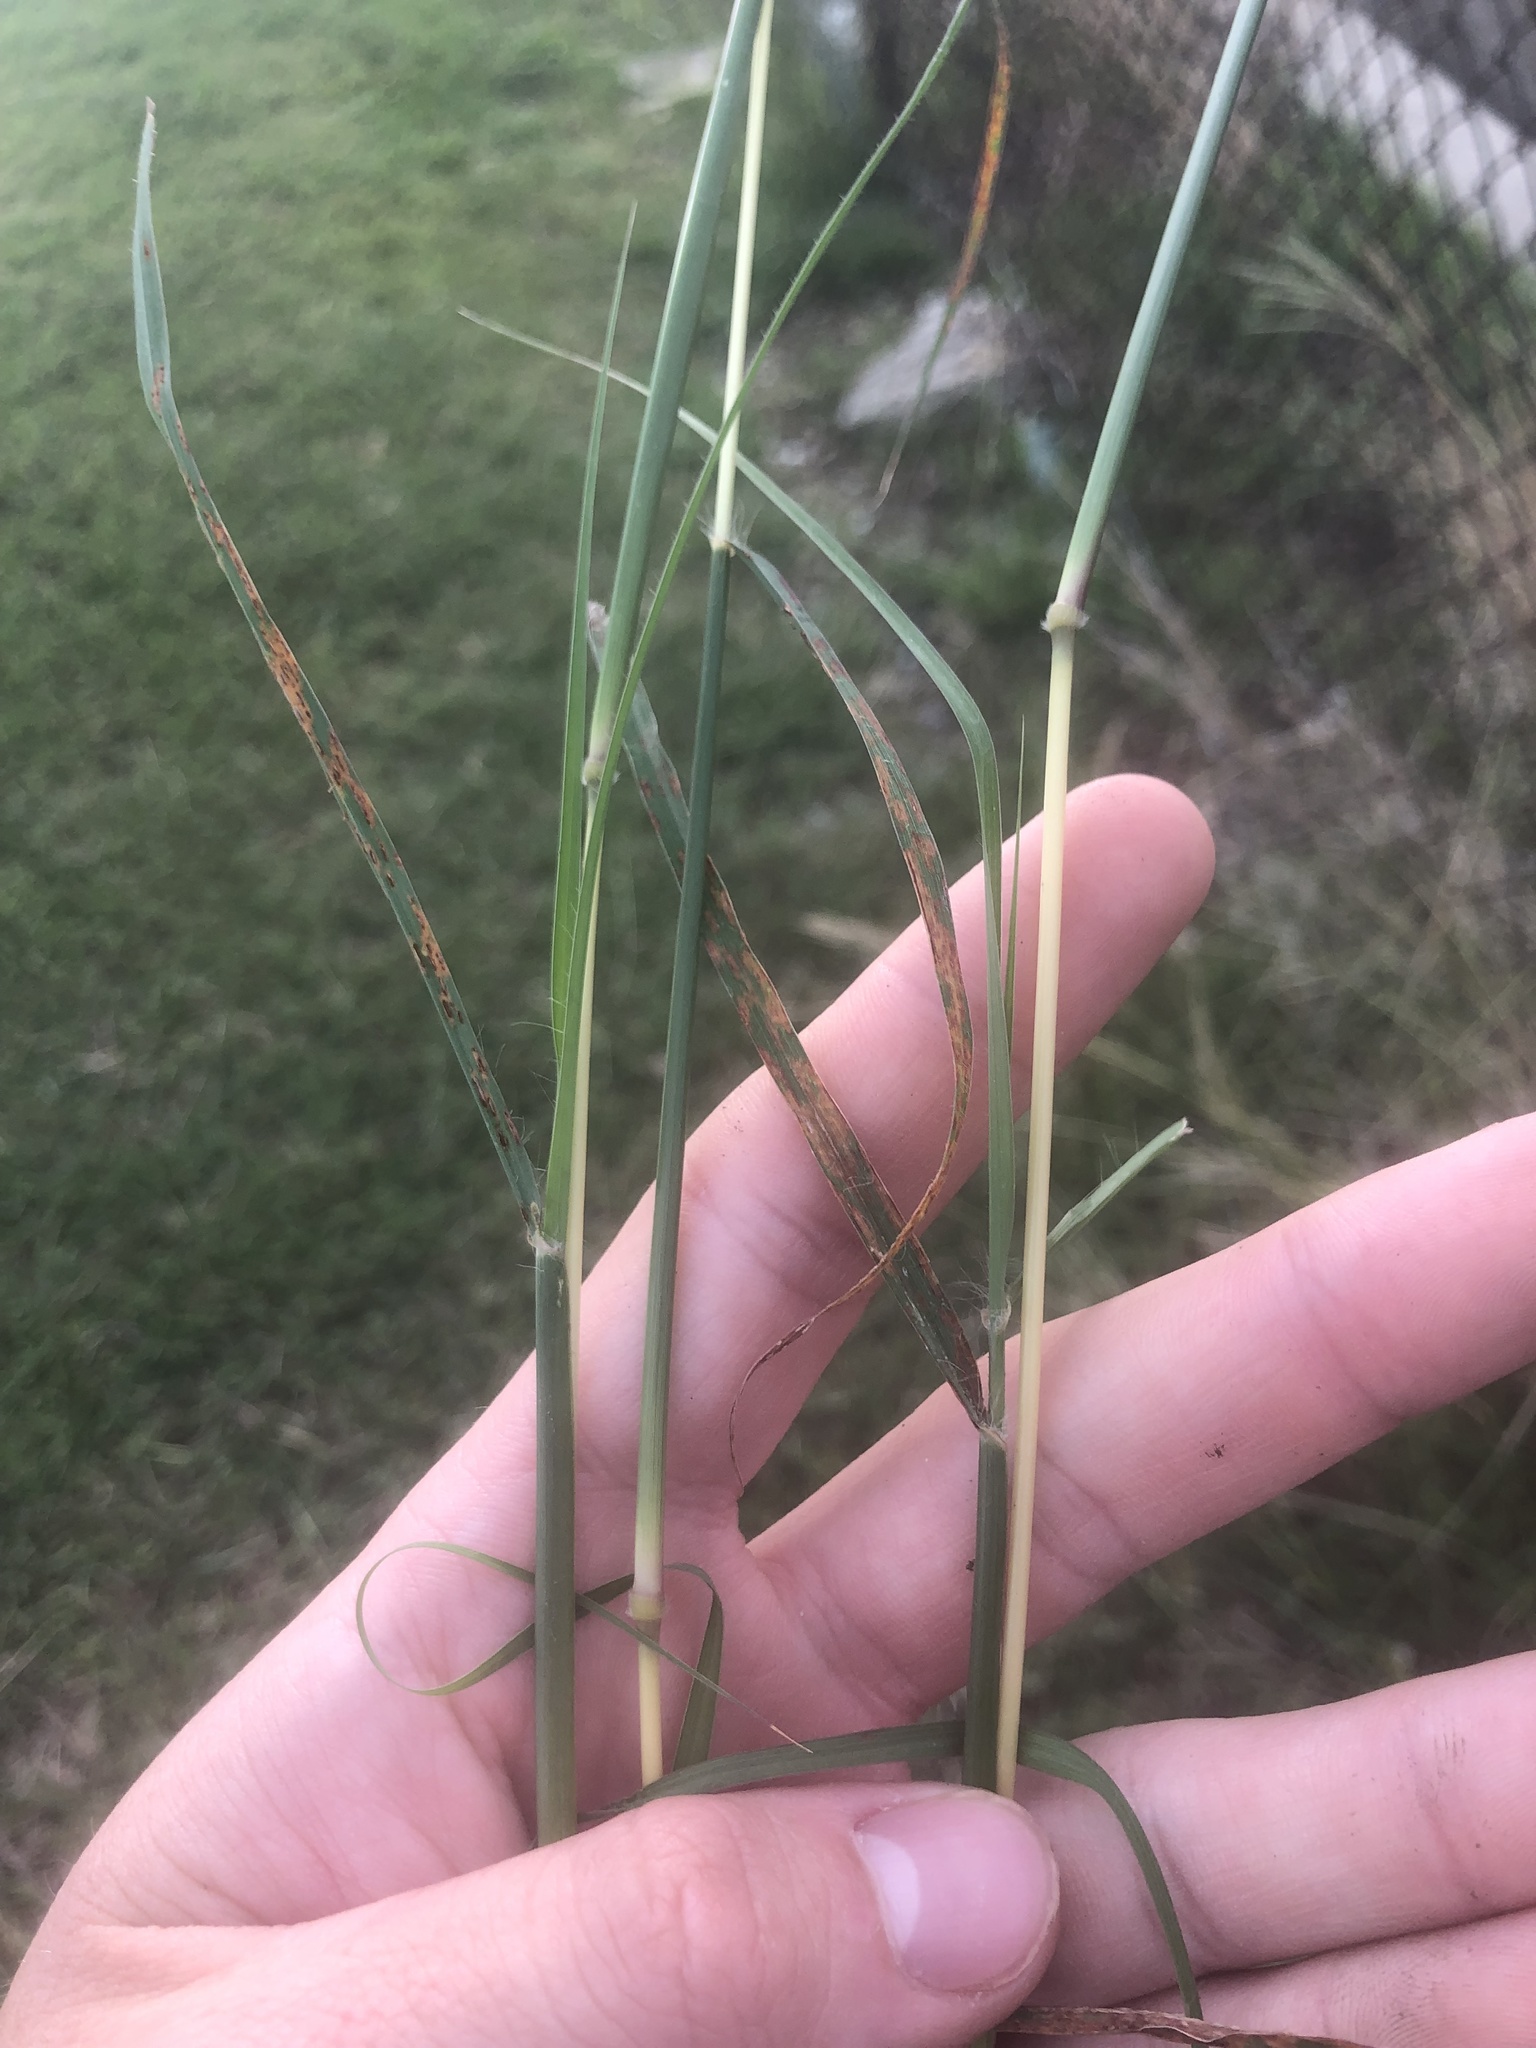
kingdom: Plantae
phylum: Tracheophyta
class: Liliopsida
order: Poales
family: Poaceae
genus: Bothriochloa
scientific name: Bothriochloa ischaemum
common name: Yellow bluestem
